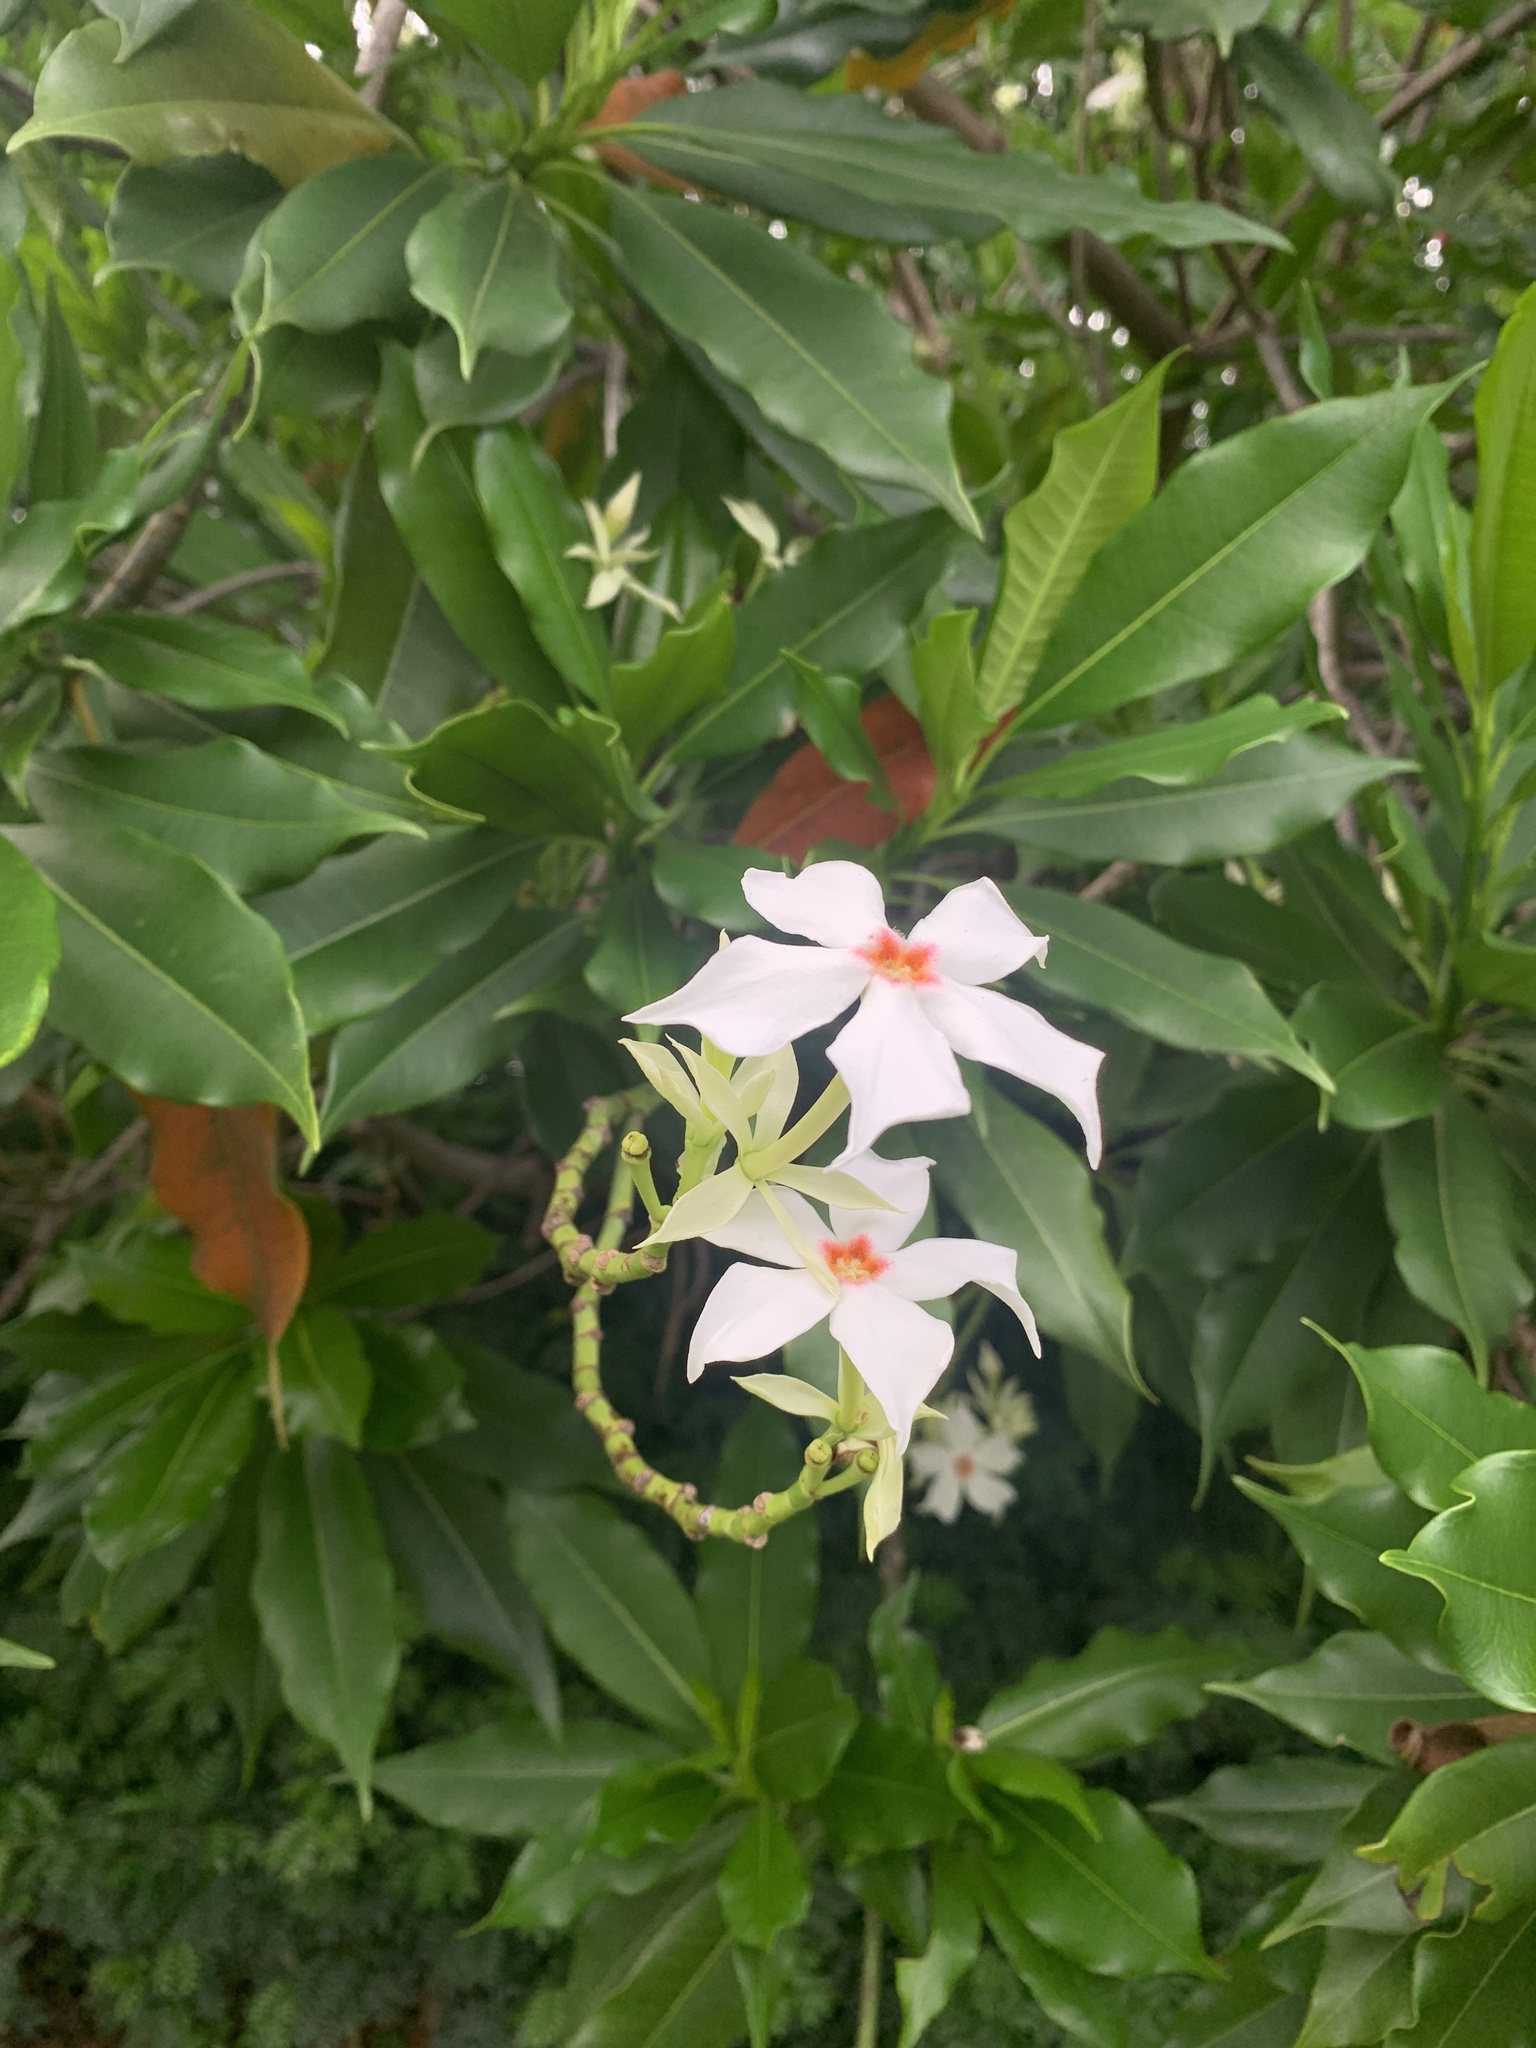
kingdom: Plantae
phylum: Tracheophyta
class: Magnoliopsida
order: Gentianales
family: Apocynaceae
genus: Cerbera
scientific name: Cerbera manghas
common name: Reva
